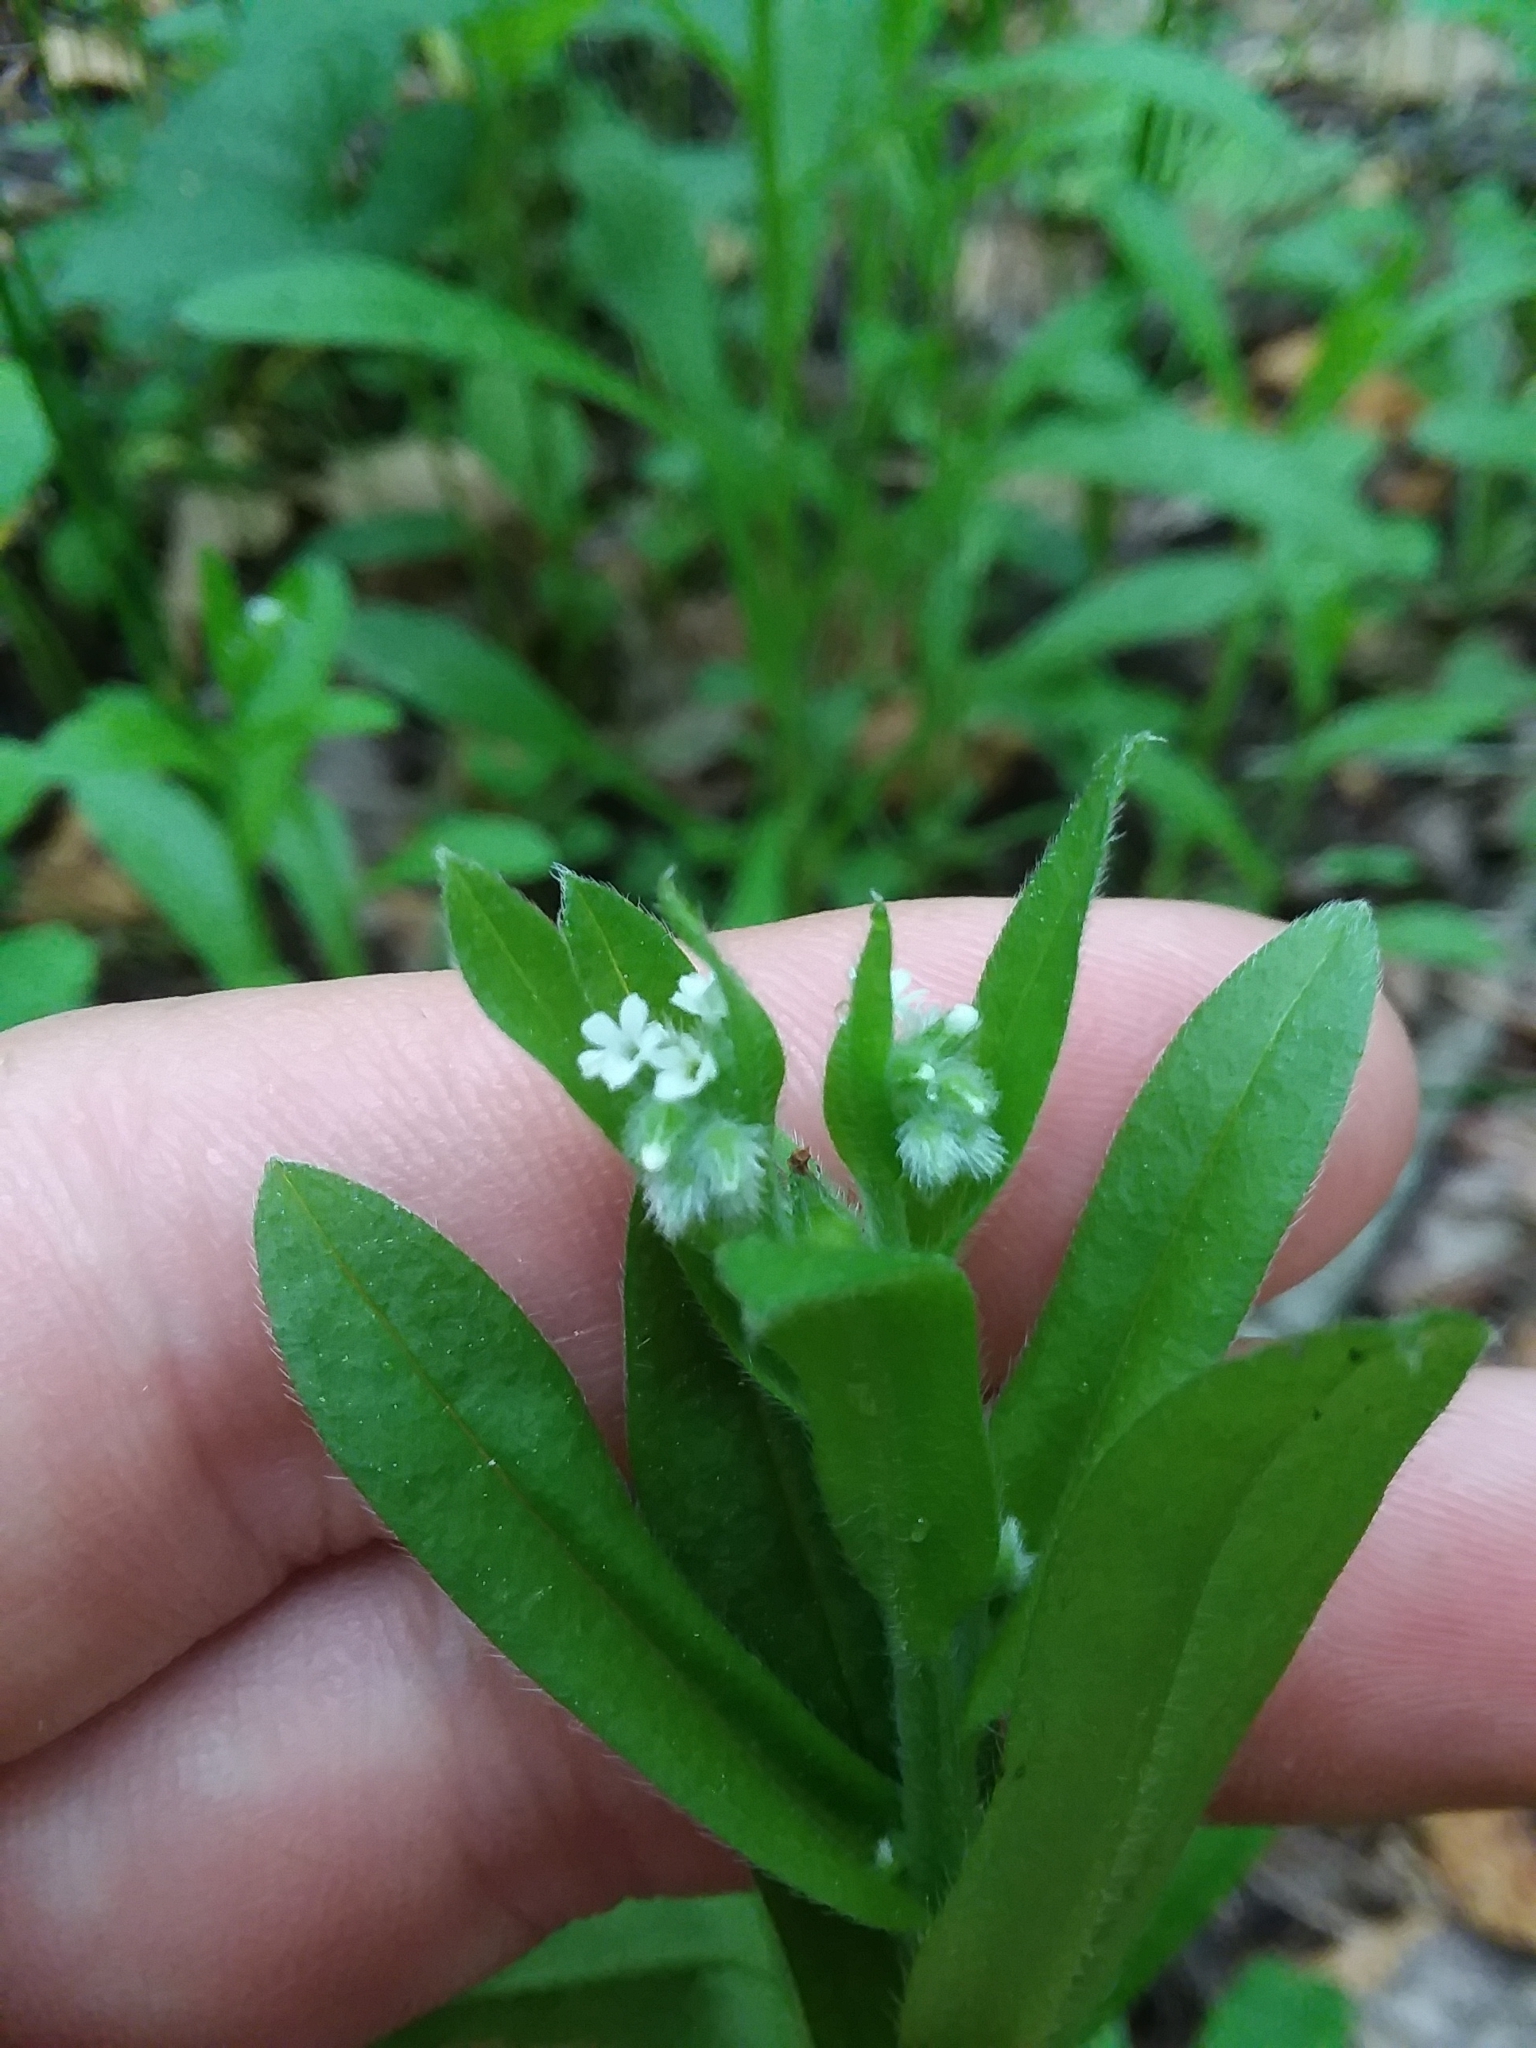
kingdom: Plantae
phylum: Tracheophyta
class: Magnoliopsida
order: Boraginales
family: Boraginaceae
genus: Myosotis
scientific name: Myosotis macrosperma
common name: Large-seed forget-me-not
